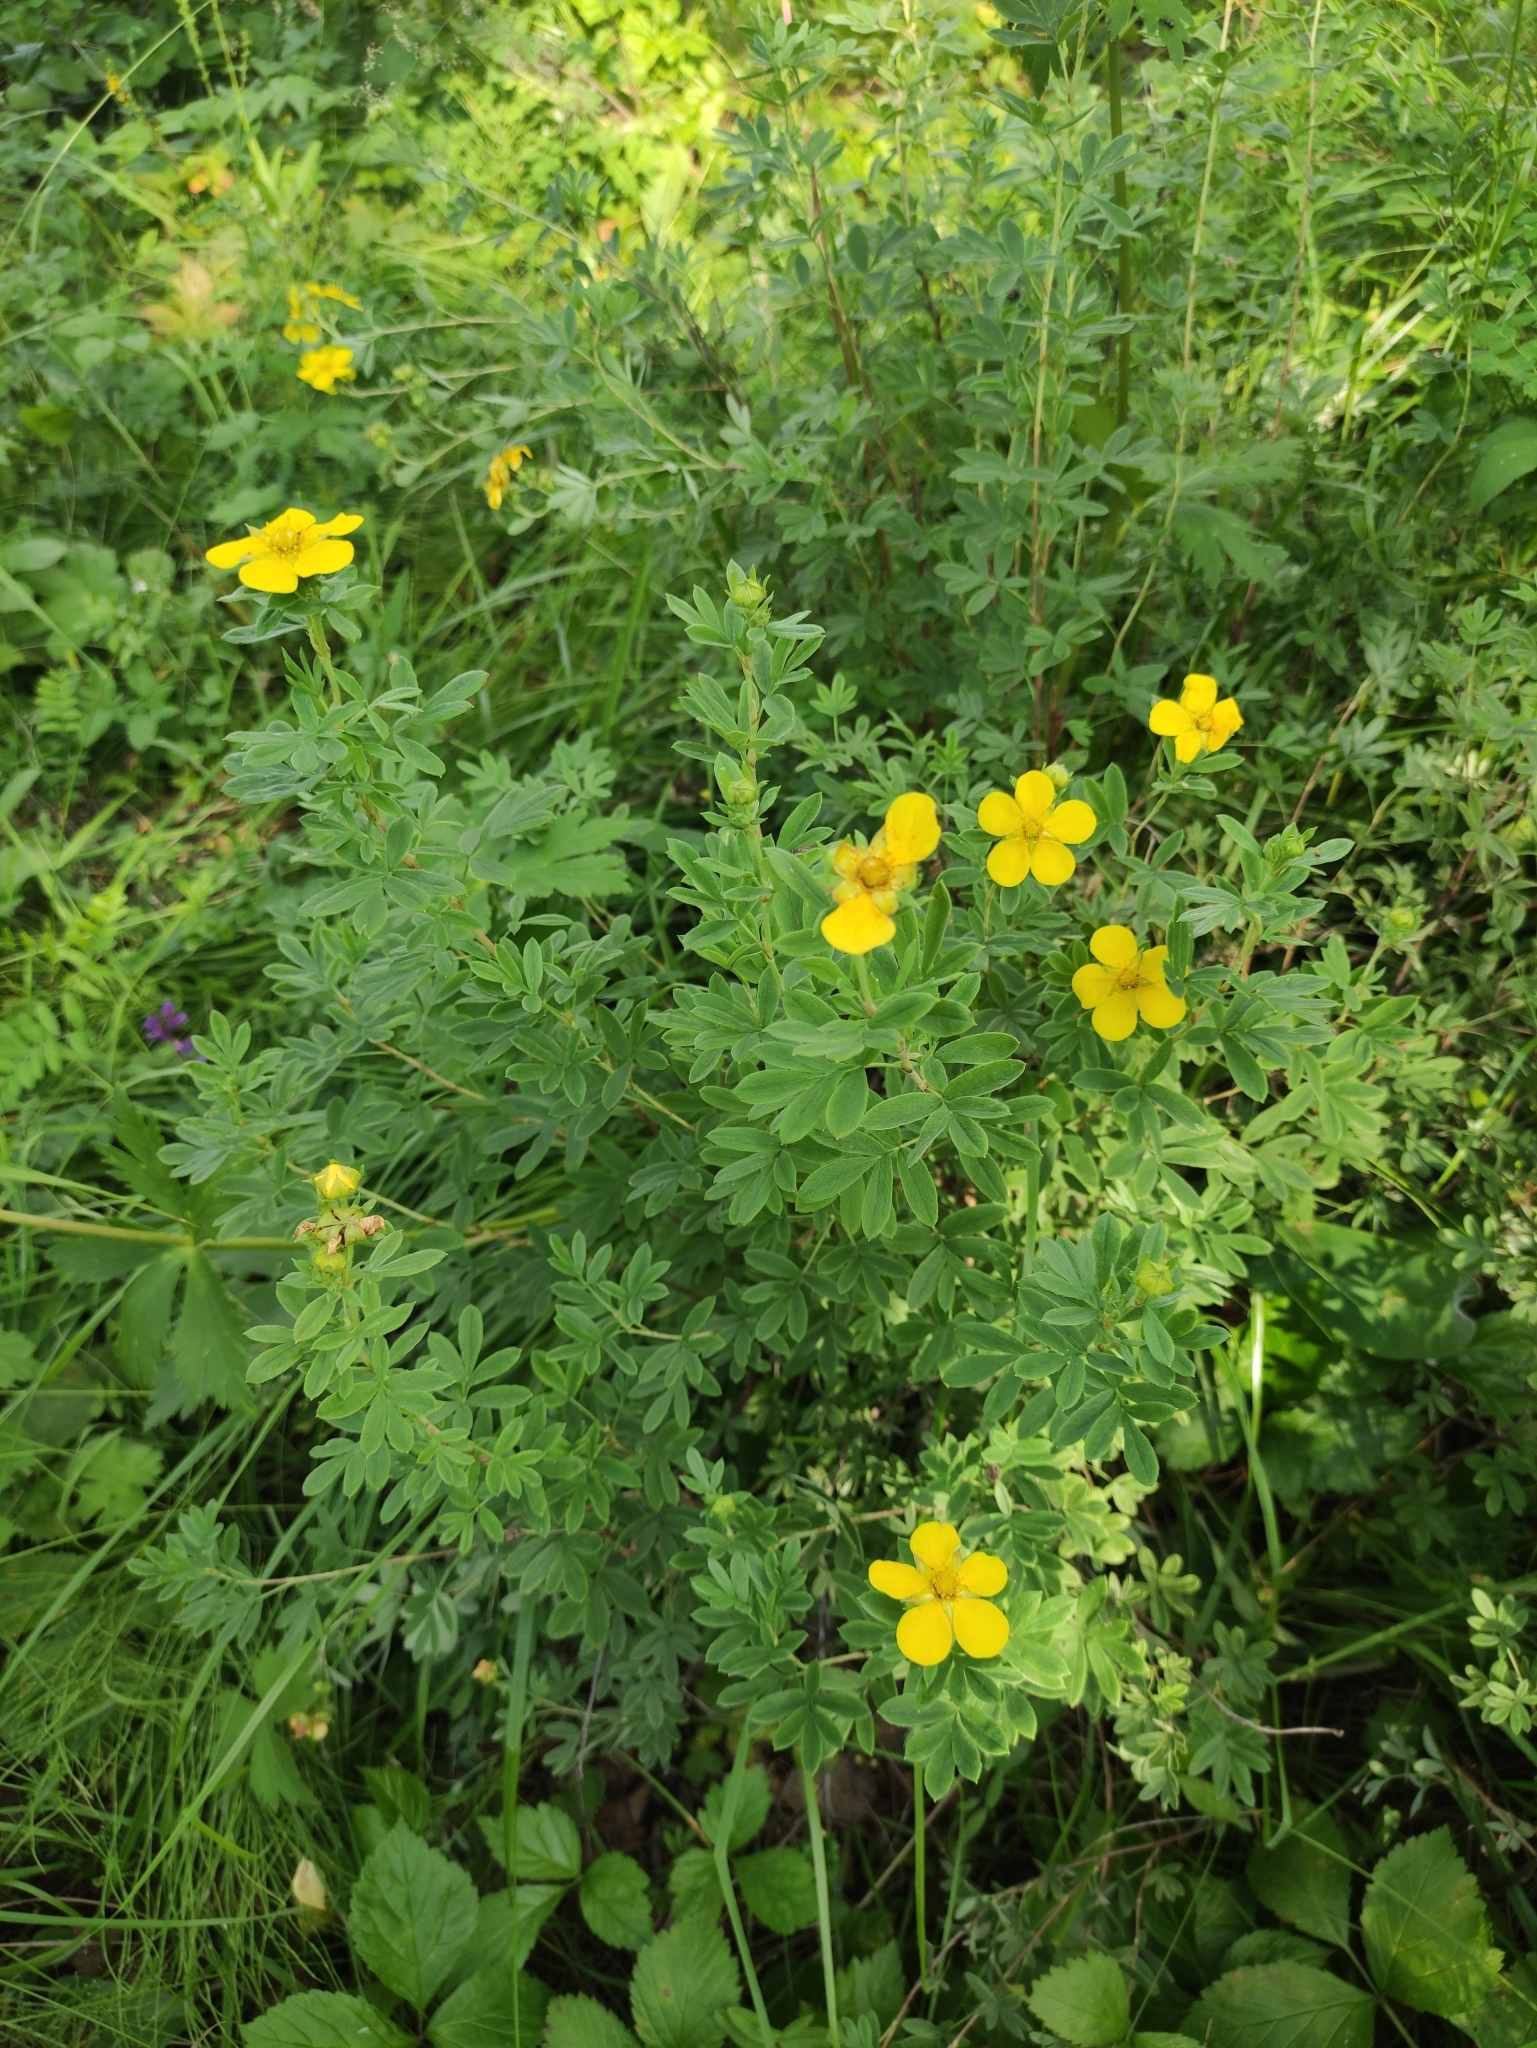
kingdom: Plantae
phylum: Tracheophyta
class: Magnoliopsida
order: Rosales
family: Rosaceae
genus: Dasiphora
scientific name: Dasiphora fruticosa
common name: Shrubby cinquefoil
